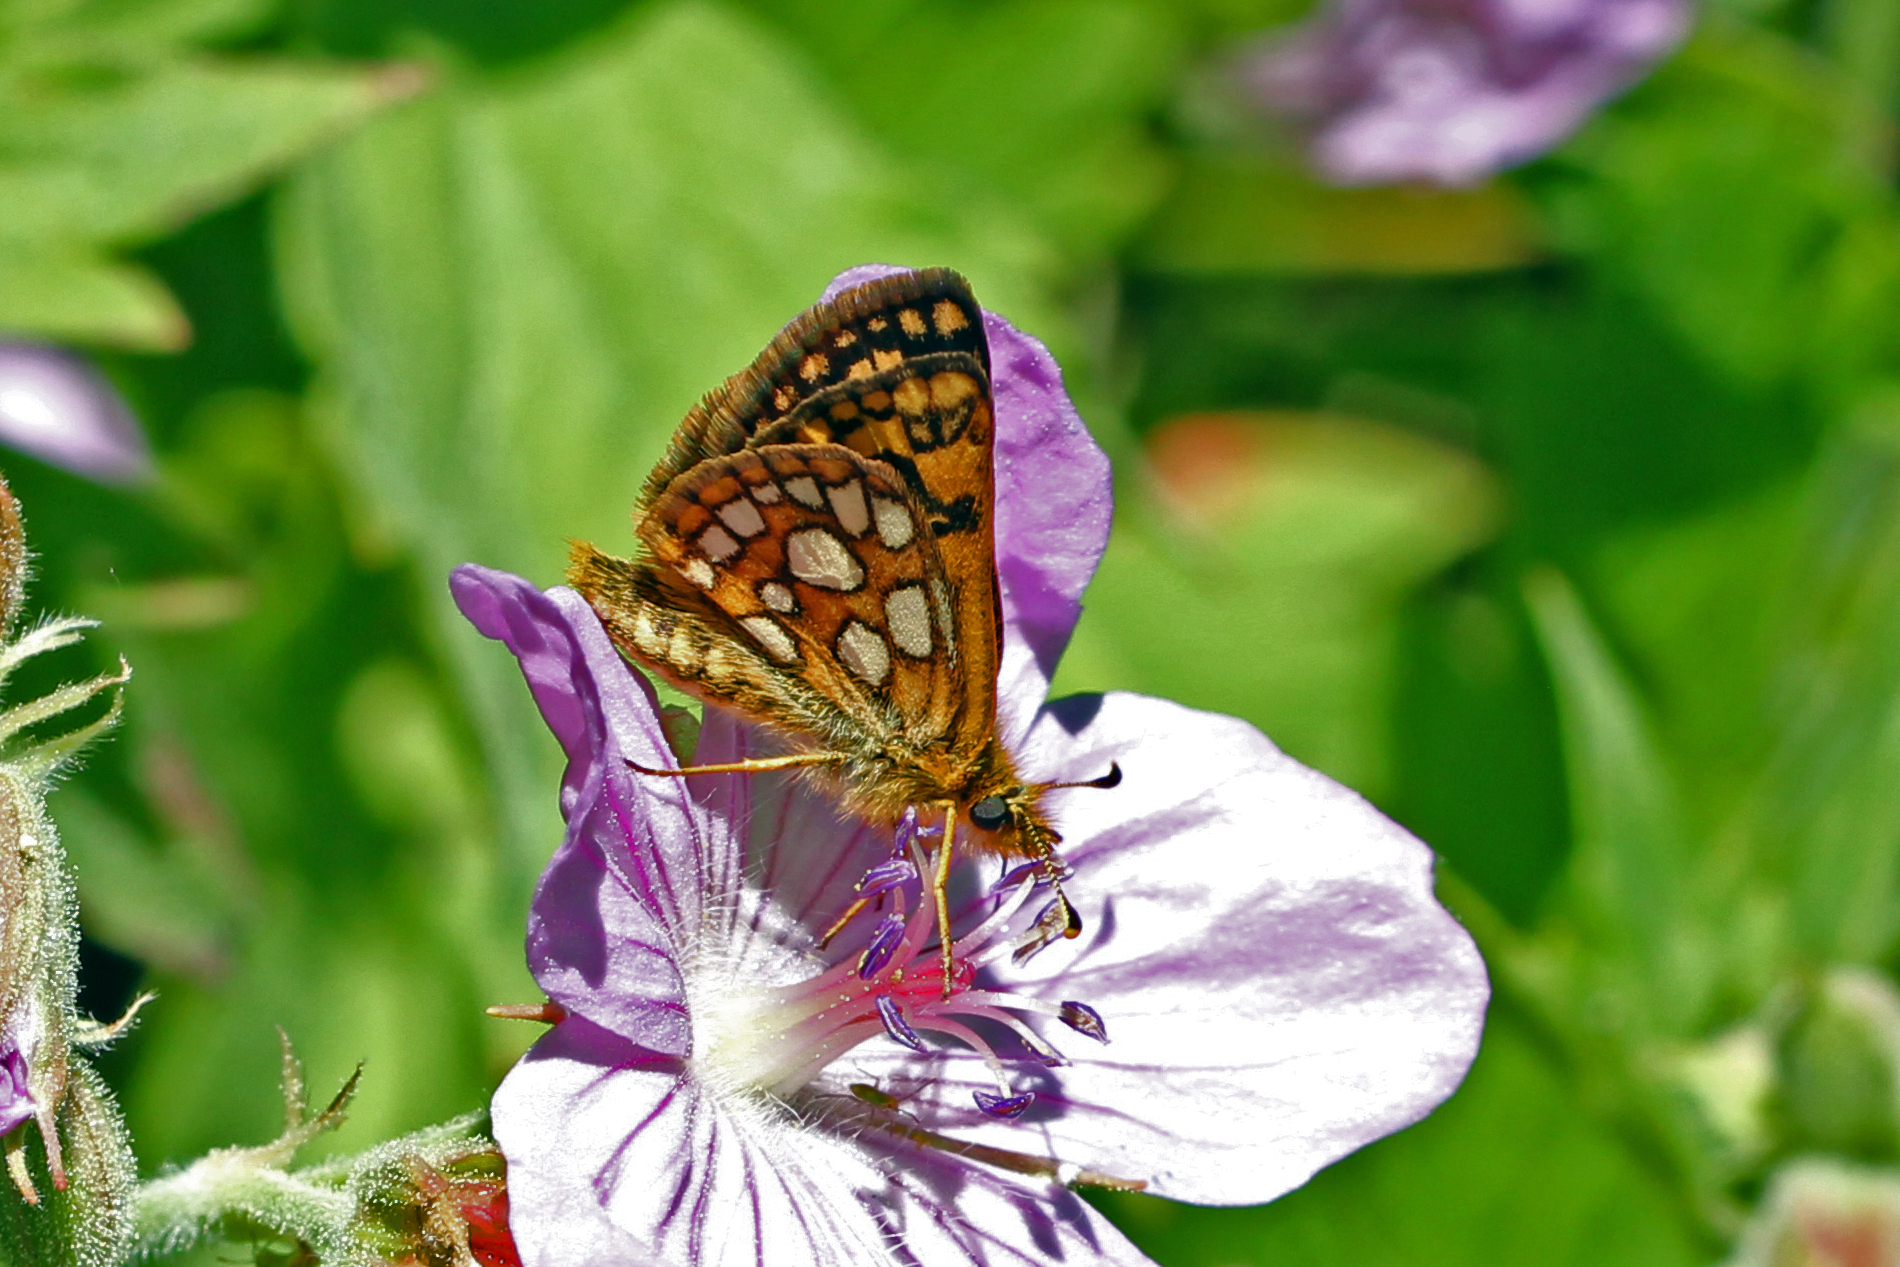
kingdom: Animalia
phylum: Arthropoda
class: Insecta
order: Lepidoptera
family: Hesperiidae
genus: Carterocephalus
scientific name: Carterocephalus skada
